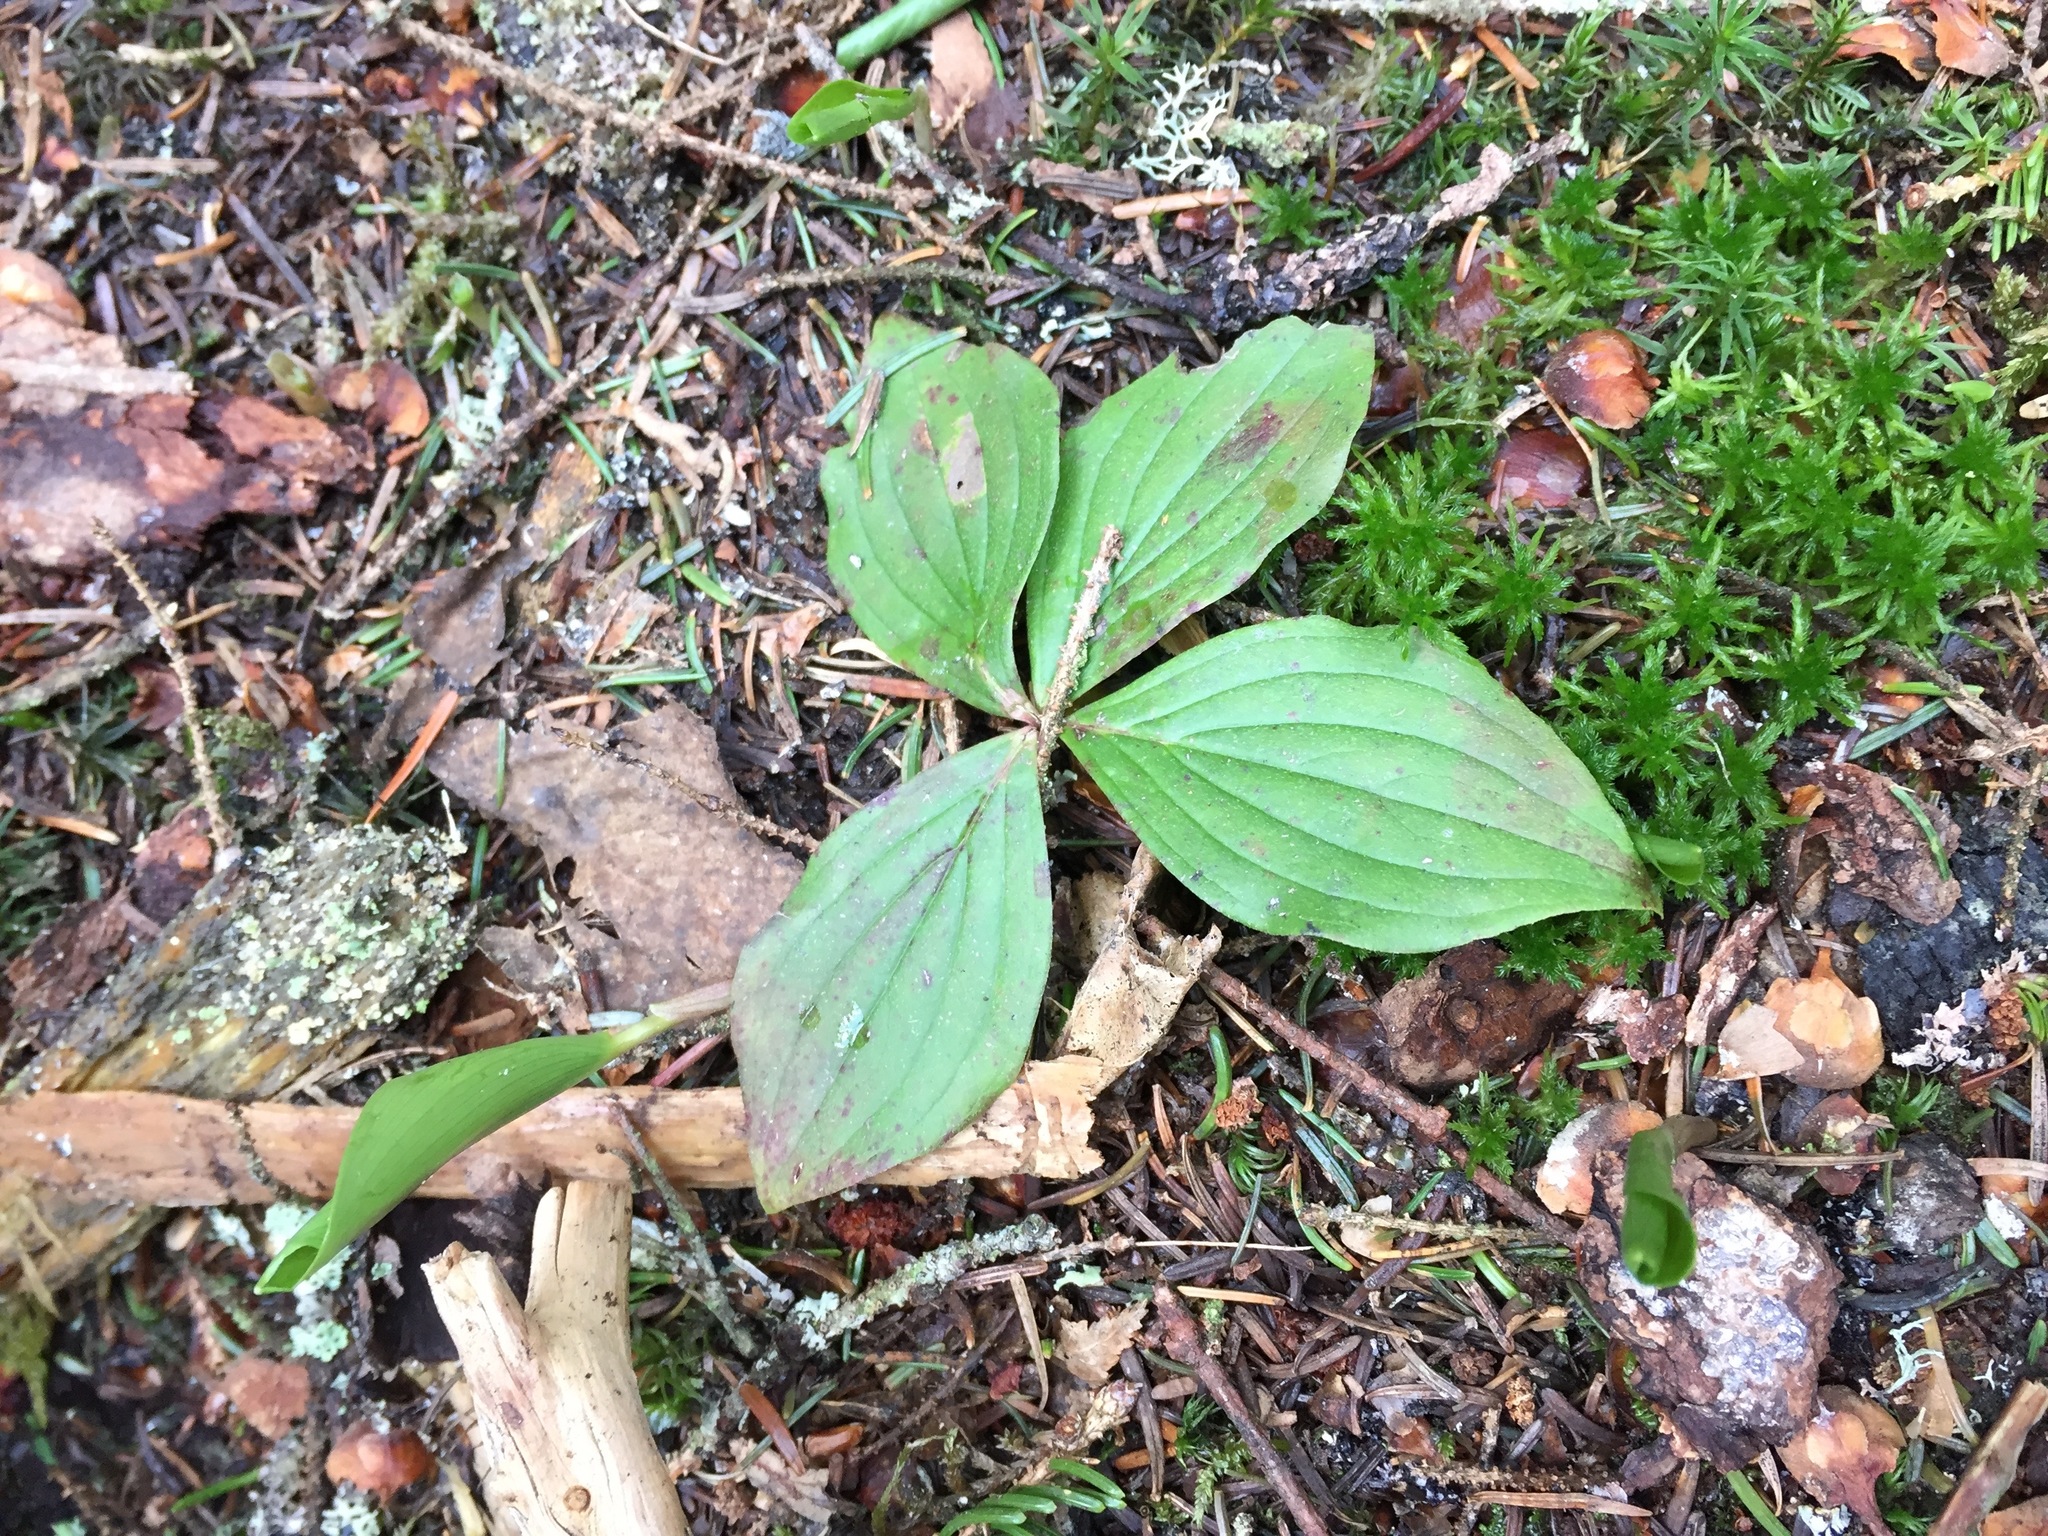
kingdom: Plantae
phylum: Tracheophyta
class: Magnoliopsida
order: Cornales
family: Cornaceae
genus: Cornus
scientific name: Cornus canadensis
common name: Creeping dogwood
